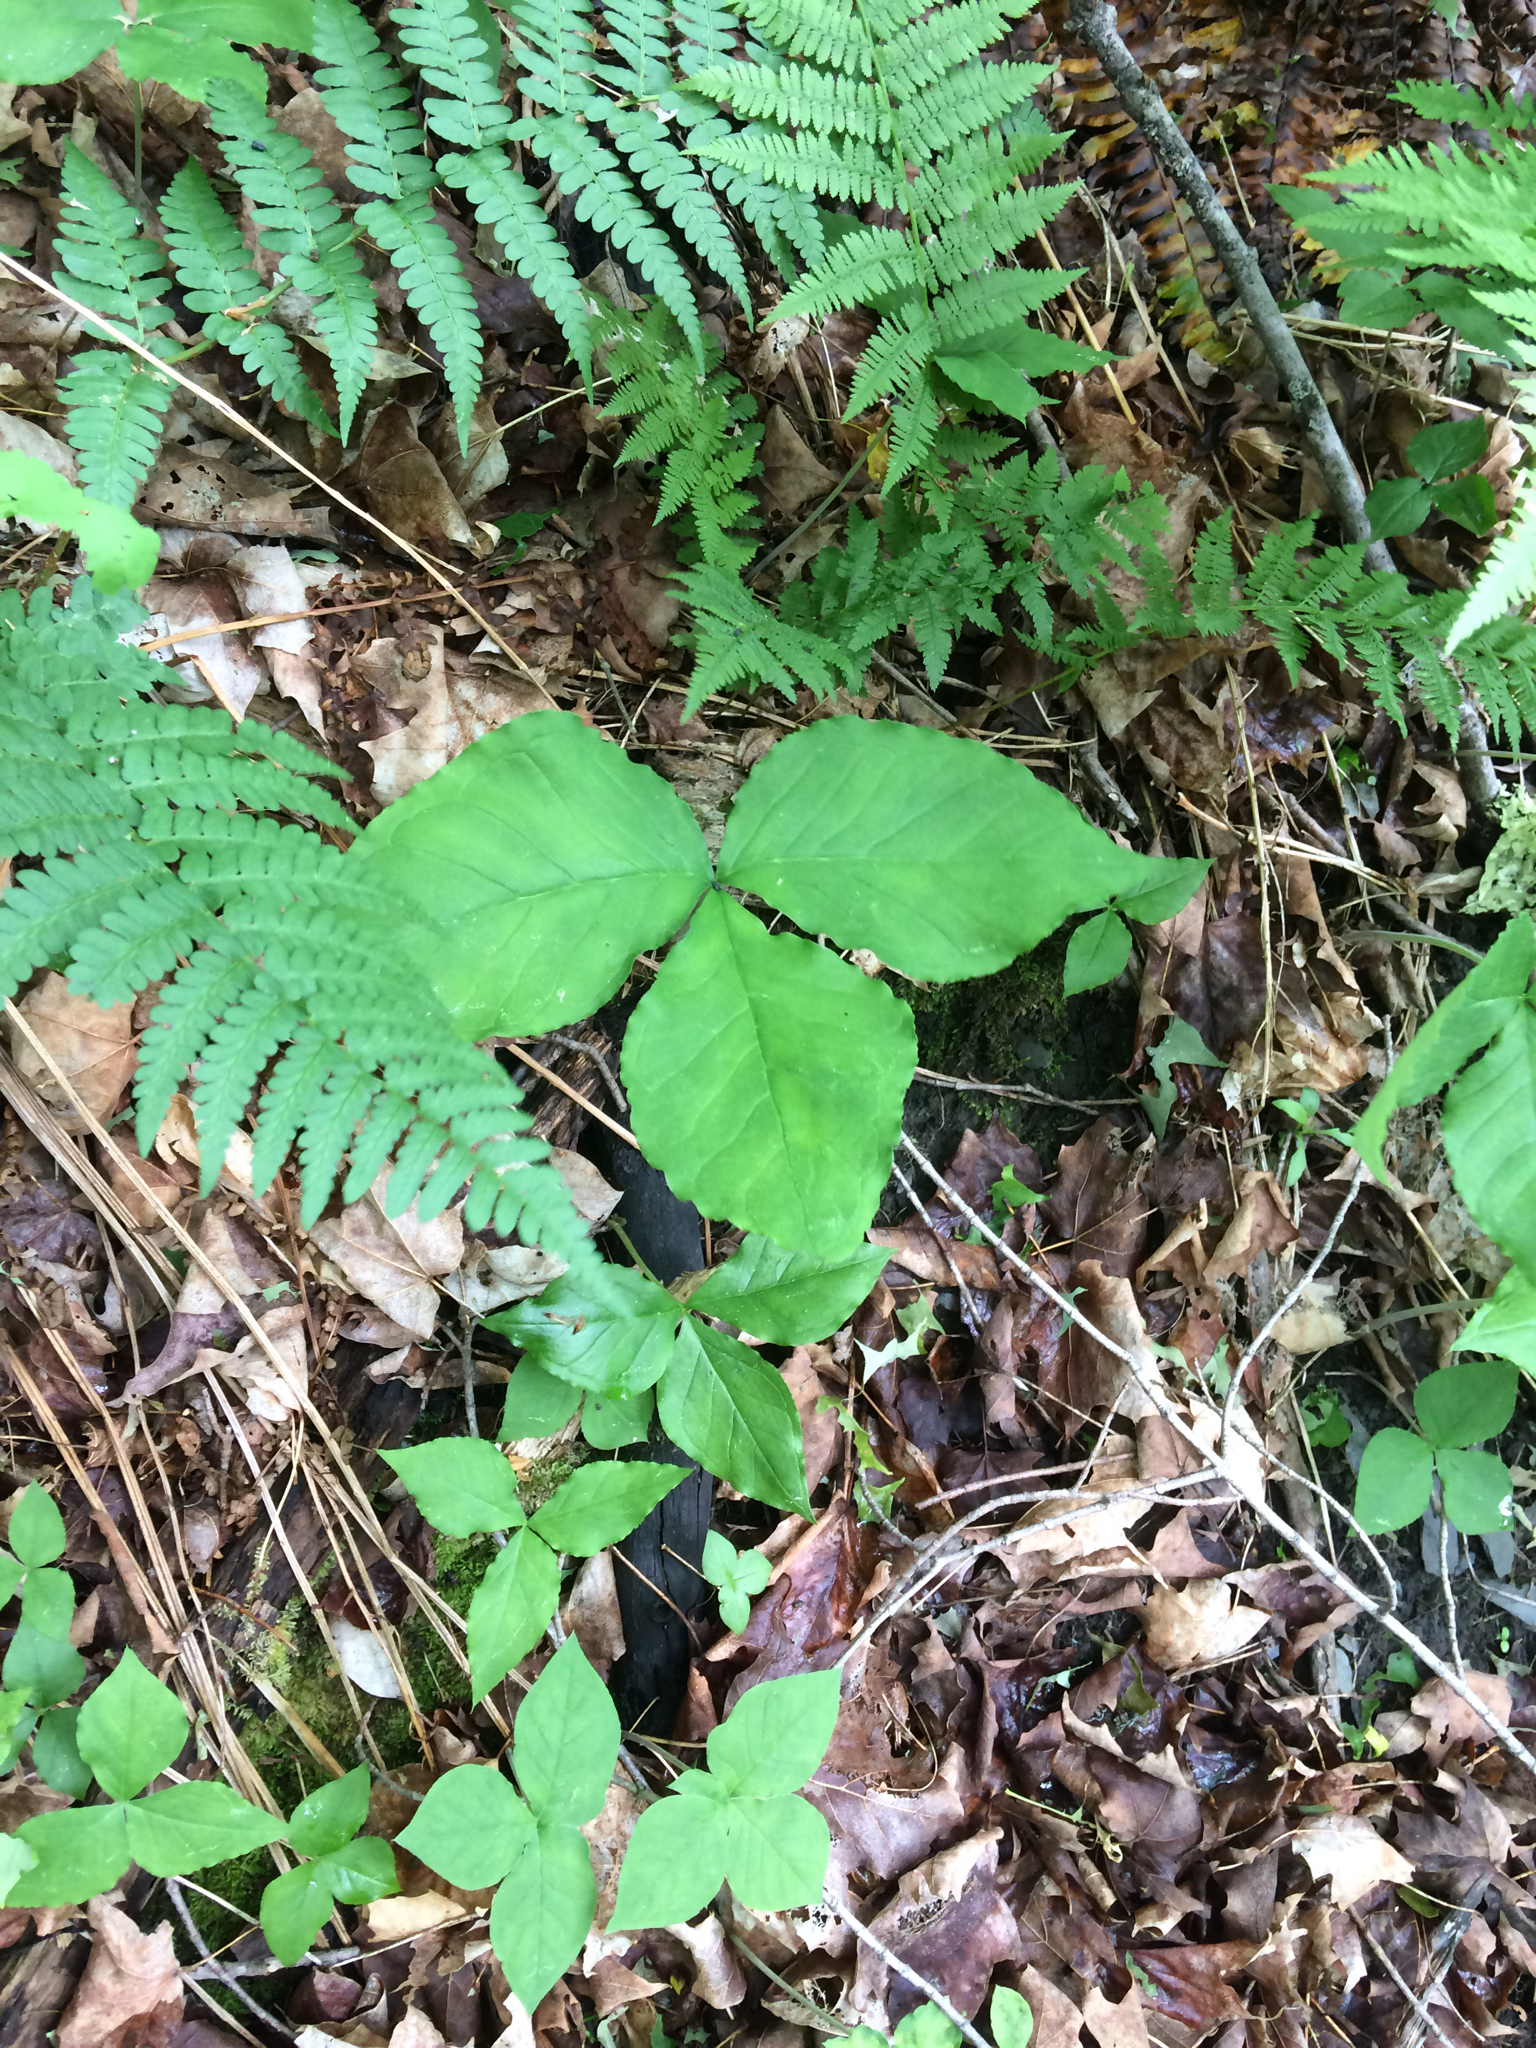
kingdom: Plantae
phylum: Tracheophyta
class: Liliopsida
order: Alismatales
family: Araceae
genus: Arisaema
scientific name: Arisaema triphyllum
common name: Jack-in-the-pulpit
